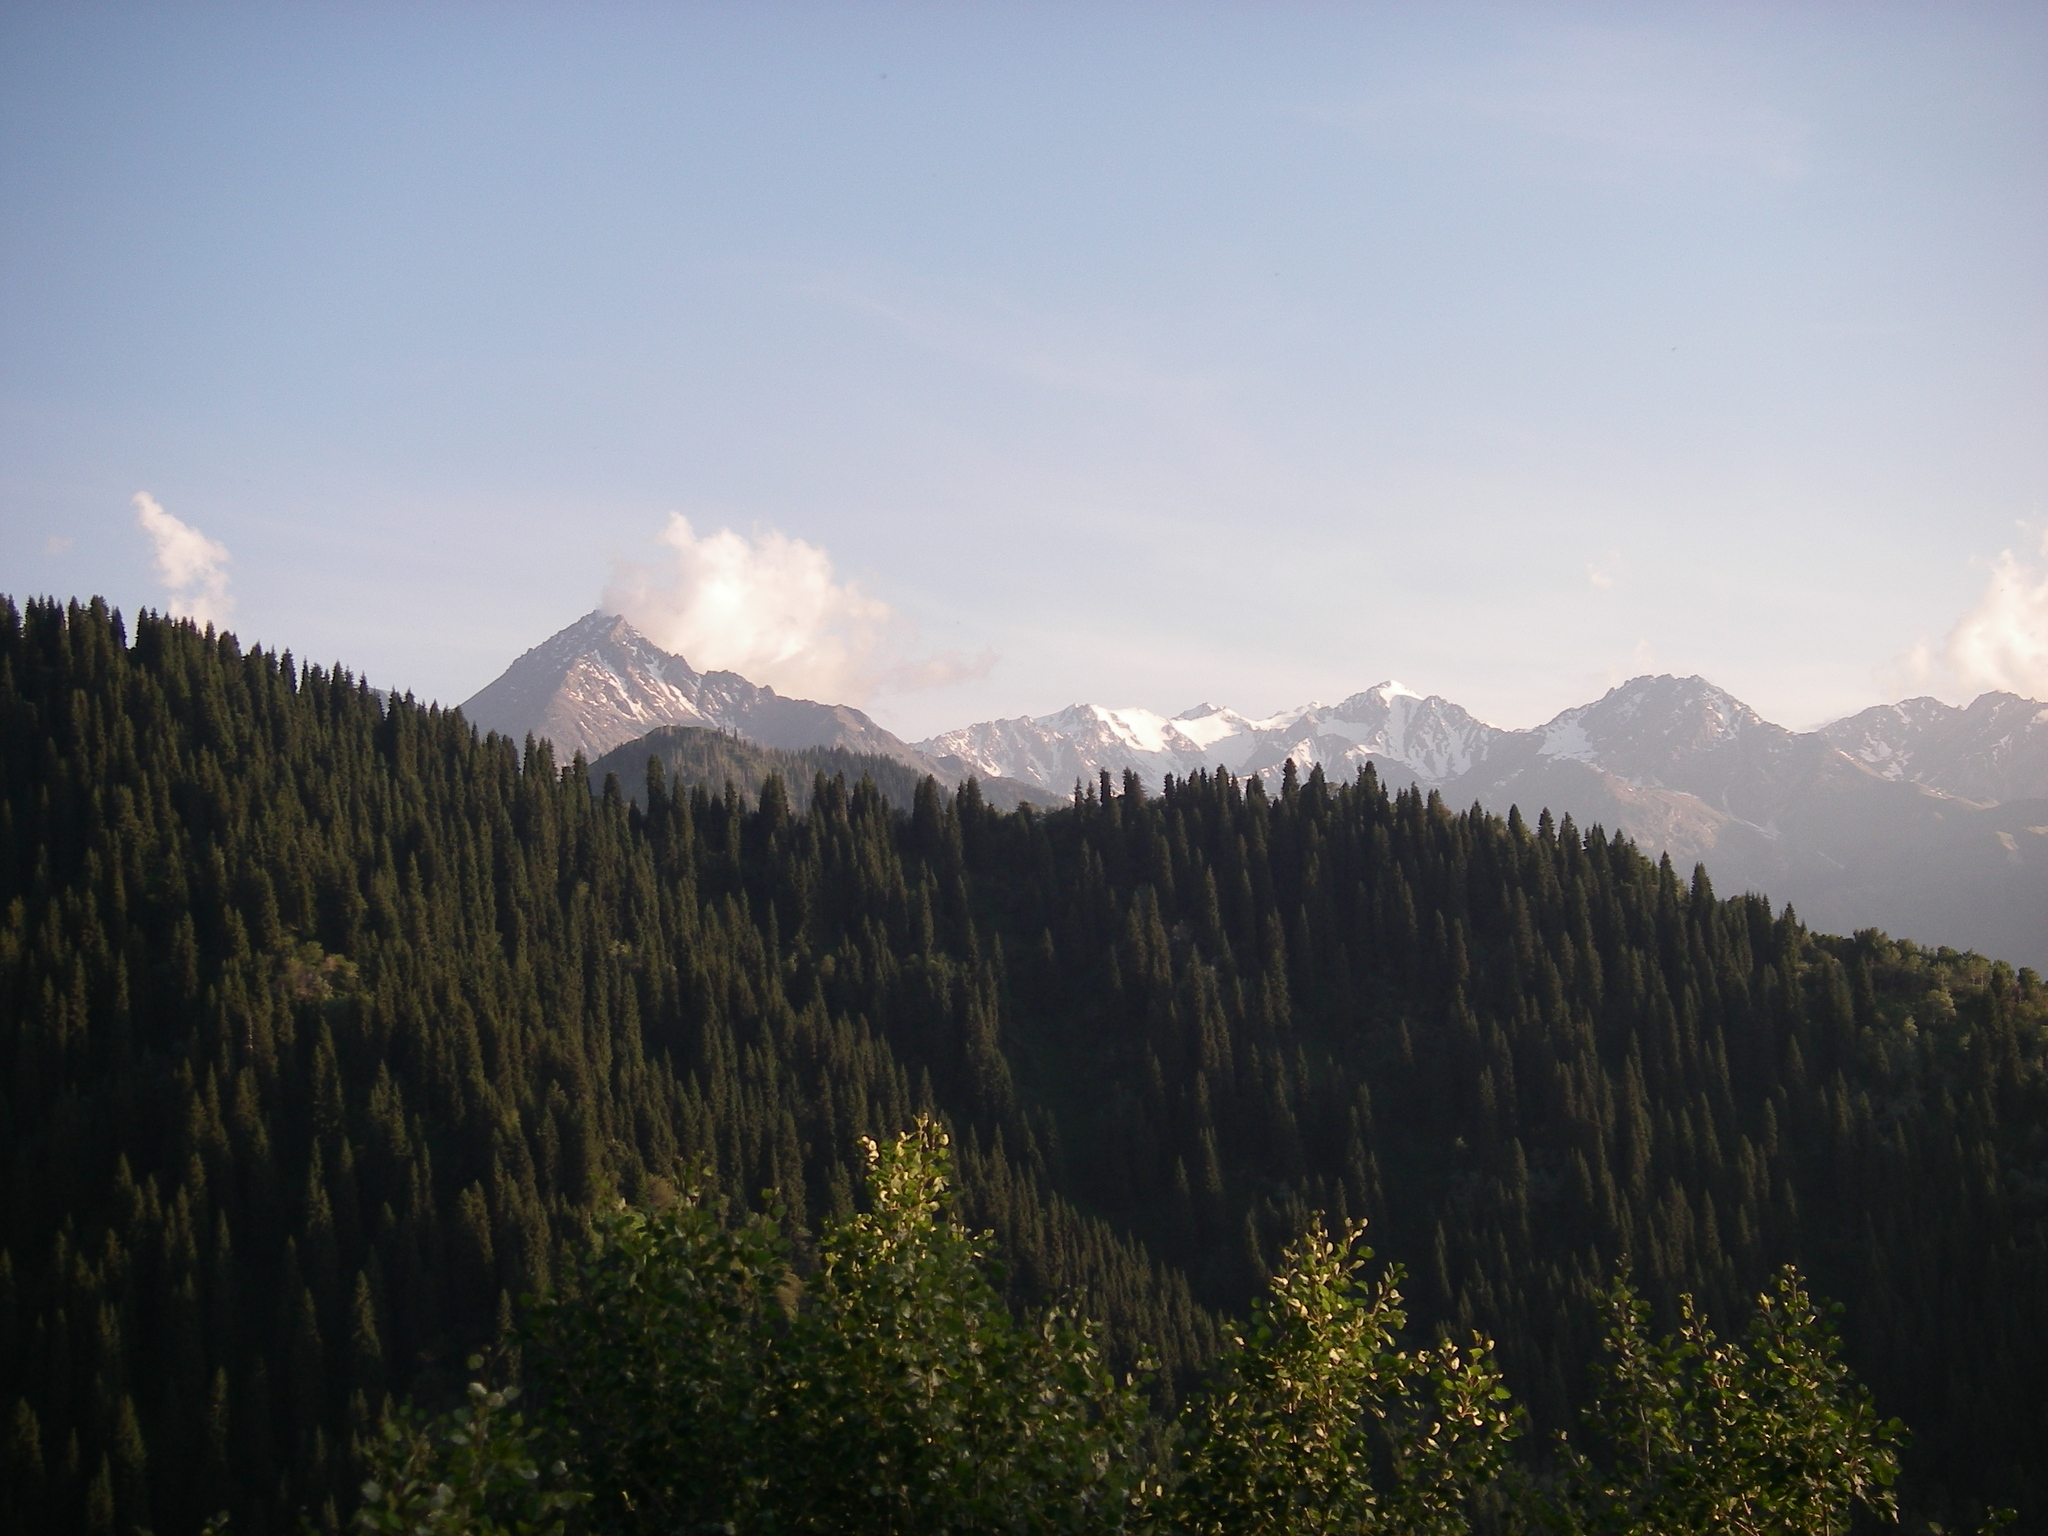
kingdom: Plantae
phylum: Tracheophyta
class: Pinopsida
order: Pinales
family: Pinaceae
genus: Picea
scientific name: Picea schrenkiana
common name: Asian spruce
